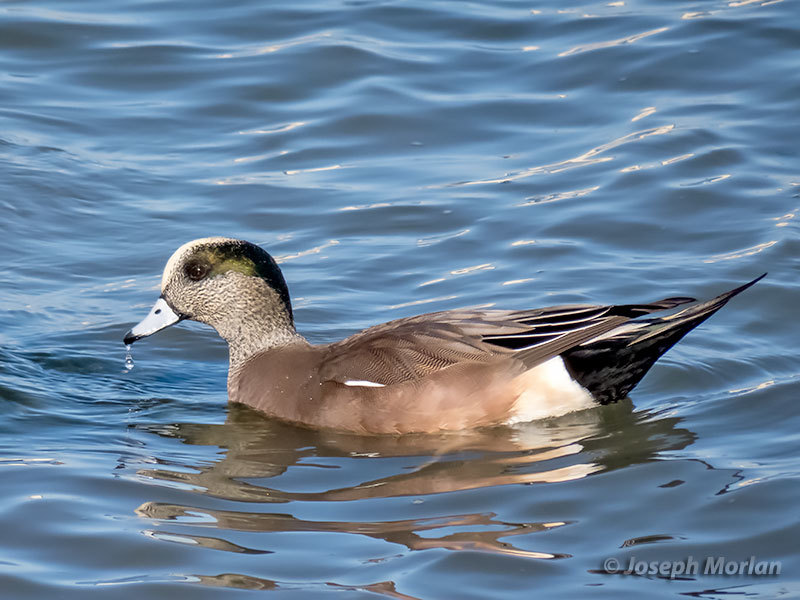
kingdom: Animalia
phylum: Chordata
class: Aves
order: Anseriformes
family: Anatidae
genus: Mareca
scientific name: Mareca americana
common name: American wigeon
